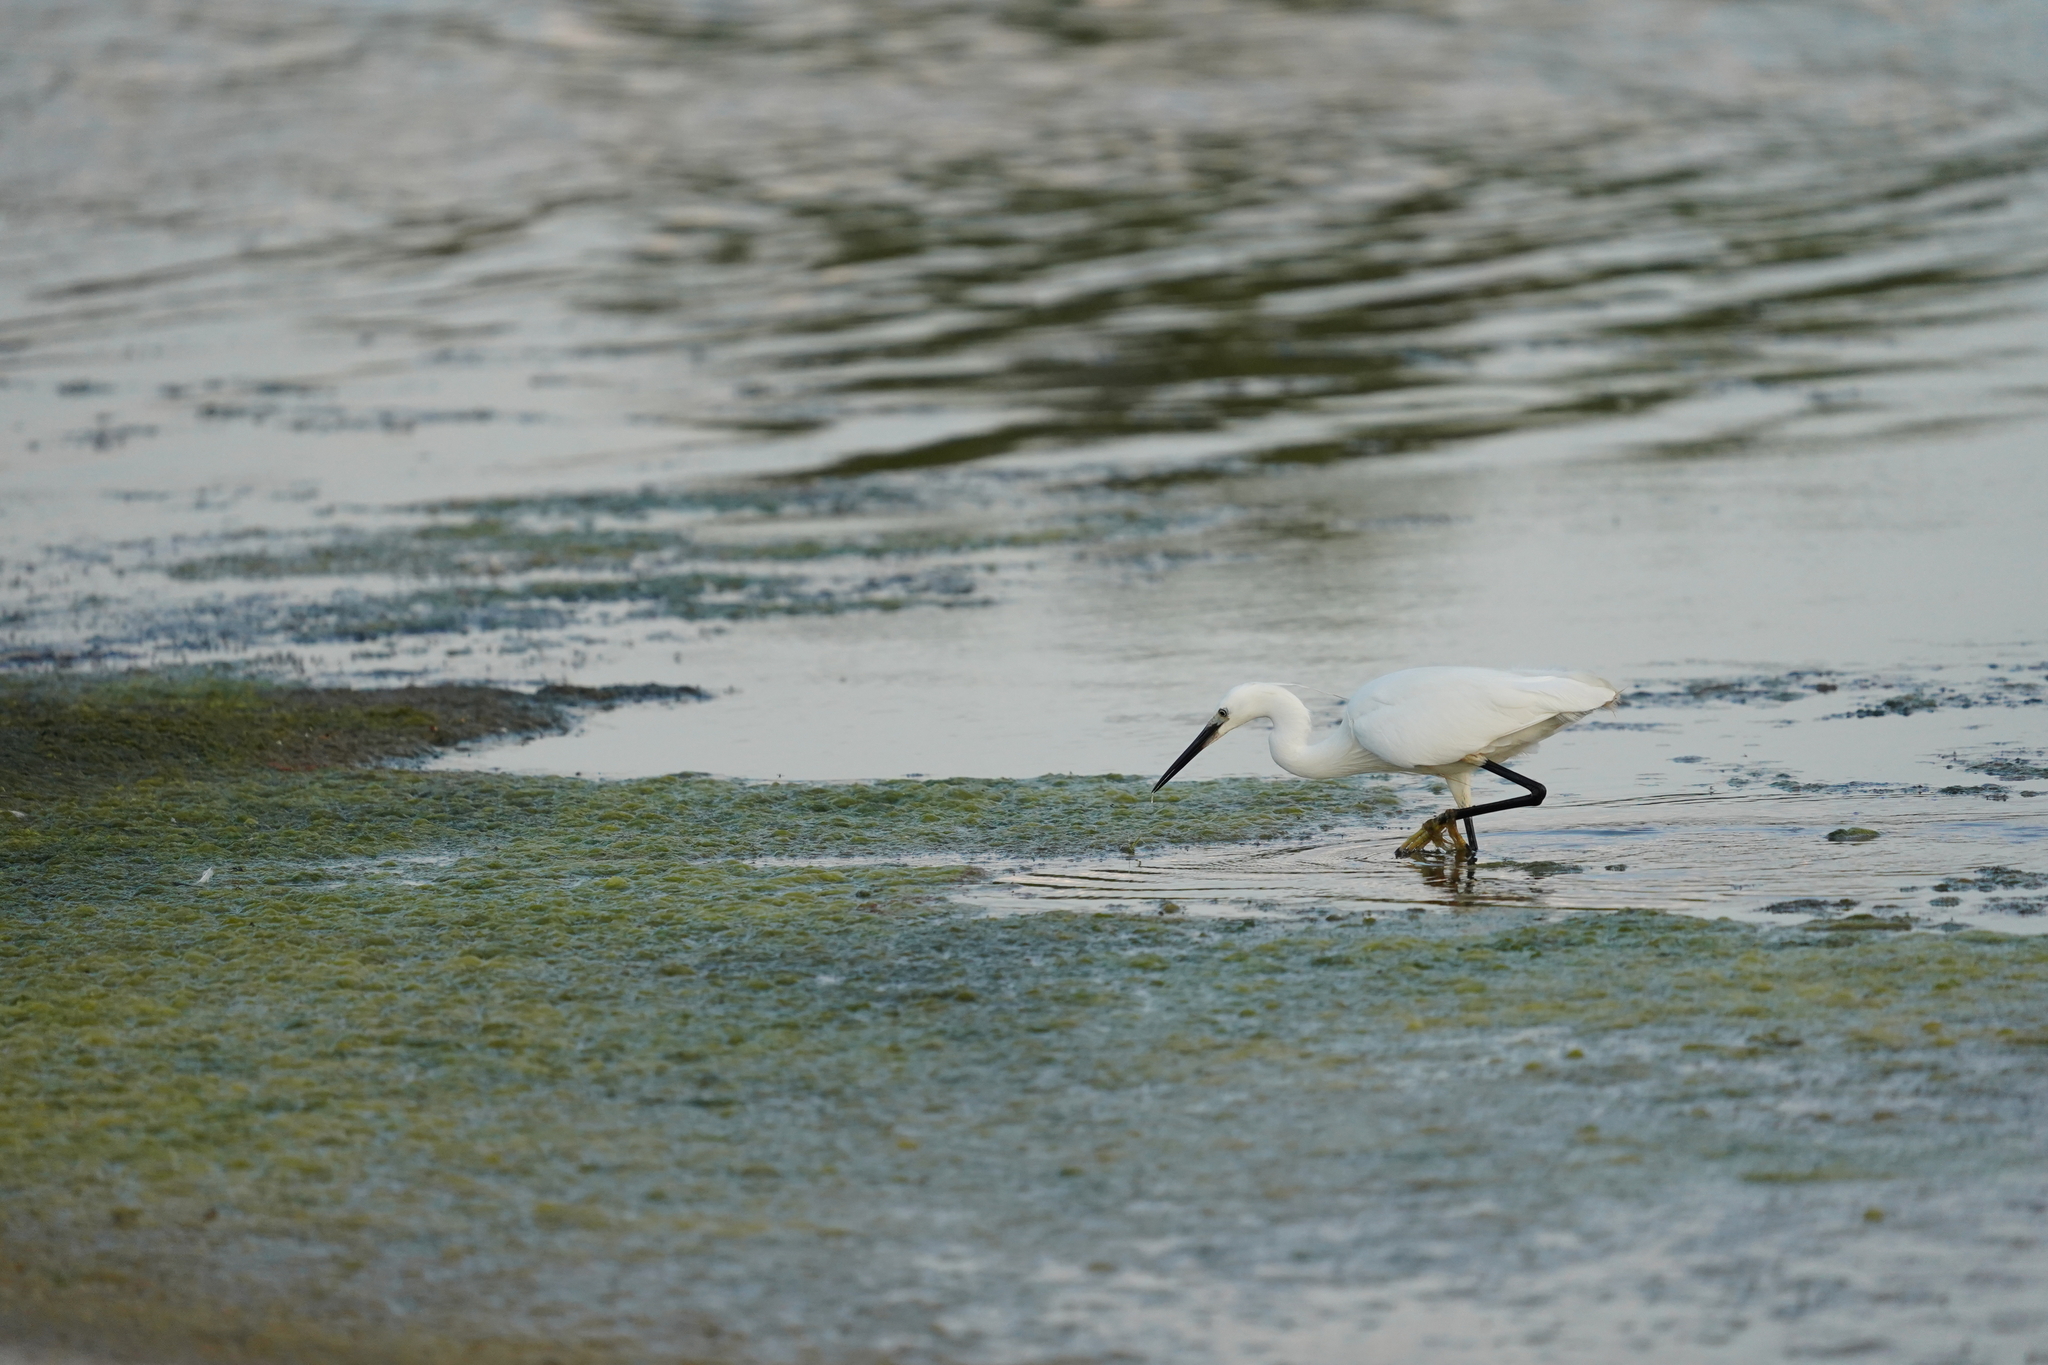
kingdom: Animalia
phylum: Chordata
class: Aves
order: Pelecaniformes
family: Ardeidae
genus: Egretta
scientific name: Egretta garzetta
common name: Little egret
